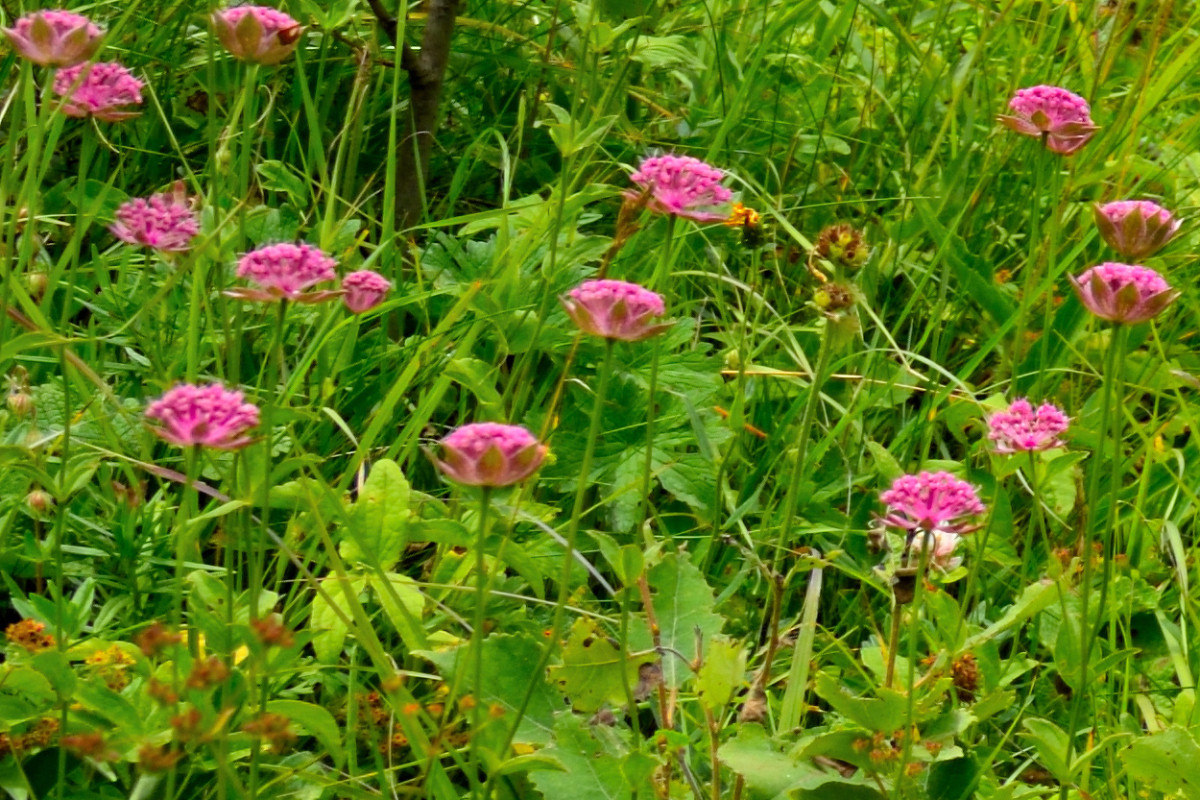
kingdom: Plantae
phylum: Tracheophyta
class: Magnoliopsida
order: Apiales
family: Apiaceae
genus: Astrantia
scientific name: Astrantia maxima
